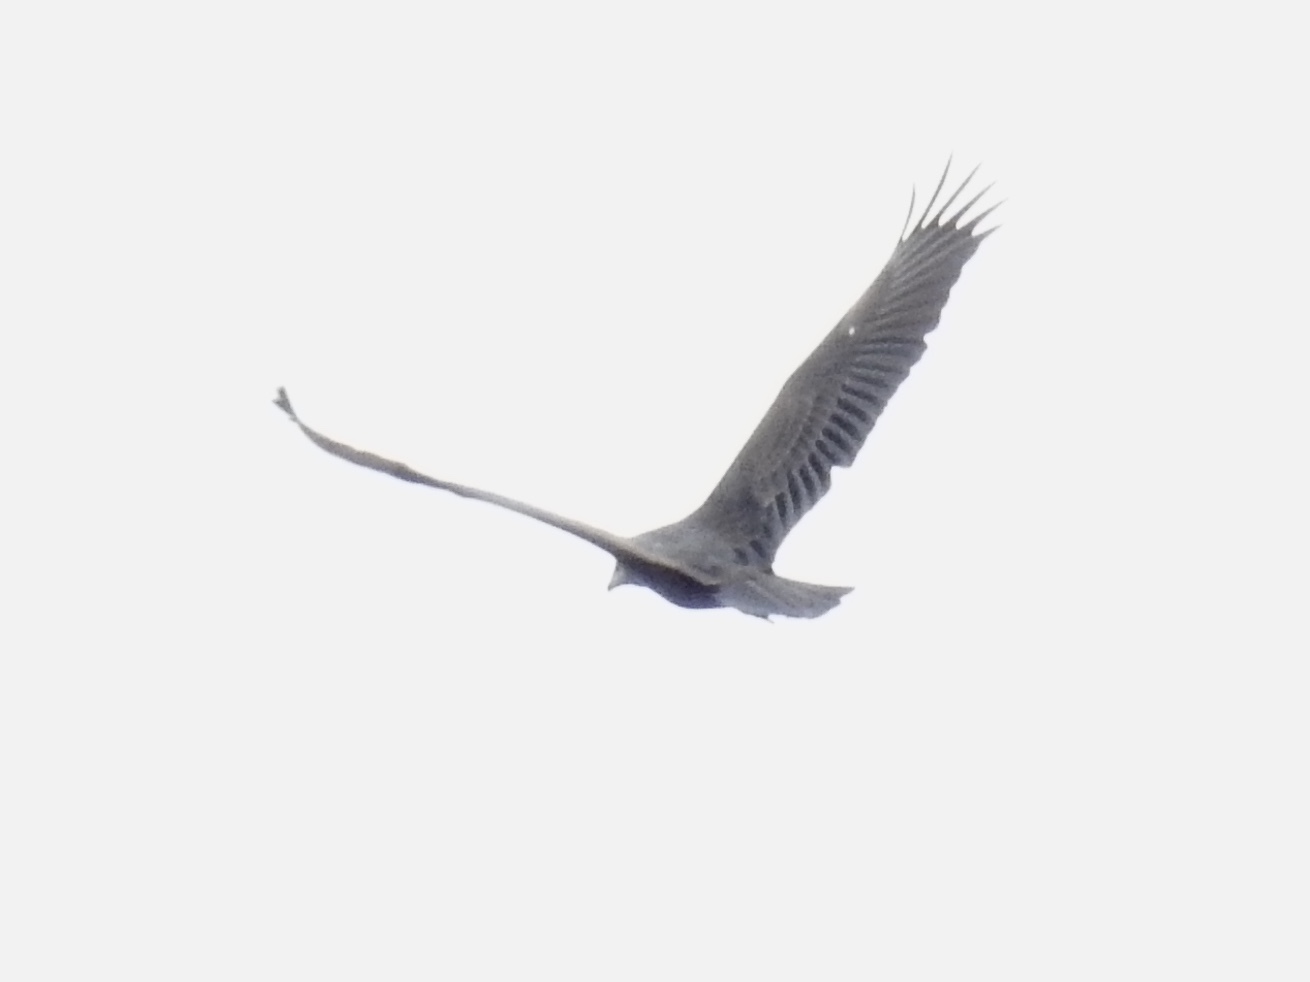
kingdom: Animalia
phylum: Chordata
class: Aves
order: Accipitriformes
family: Cathartidae
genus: Cathartes
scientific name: Cathartes aura
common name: Turkey vulture
